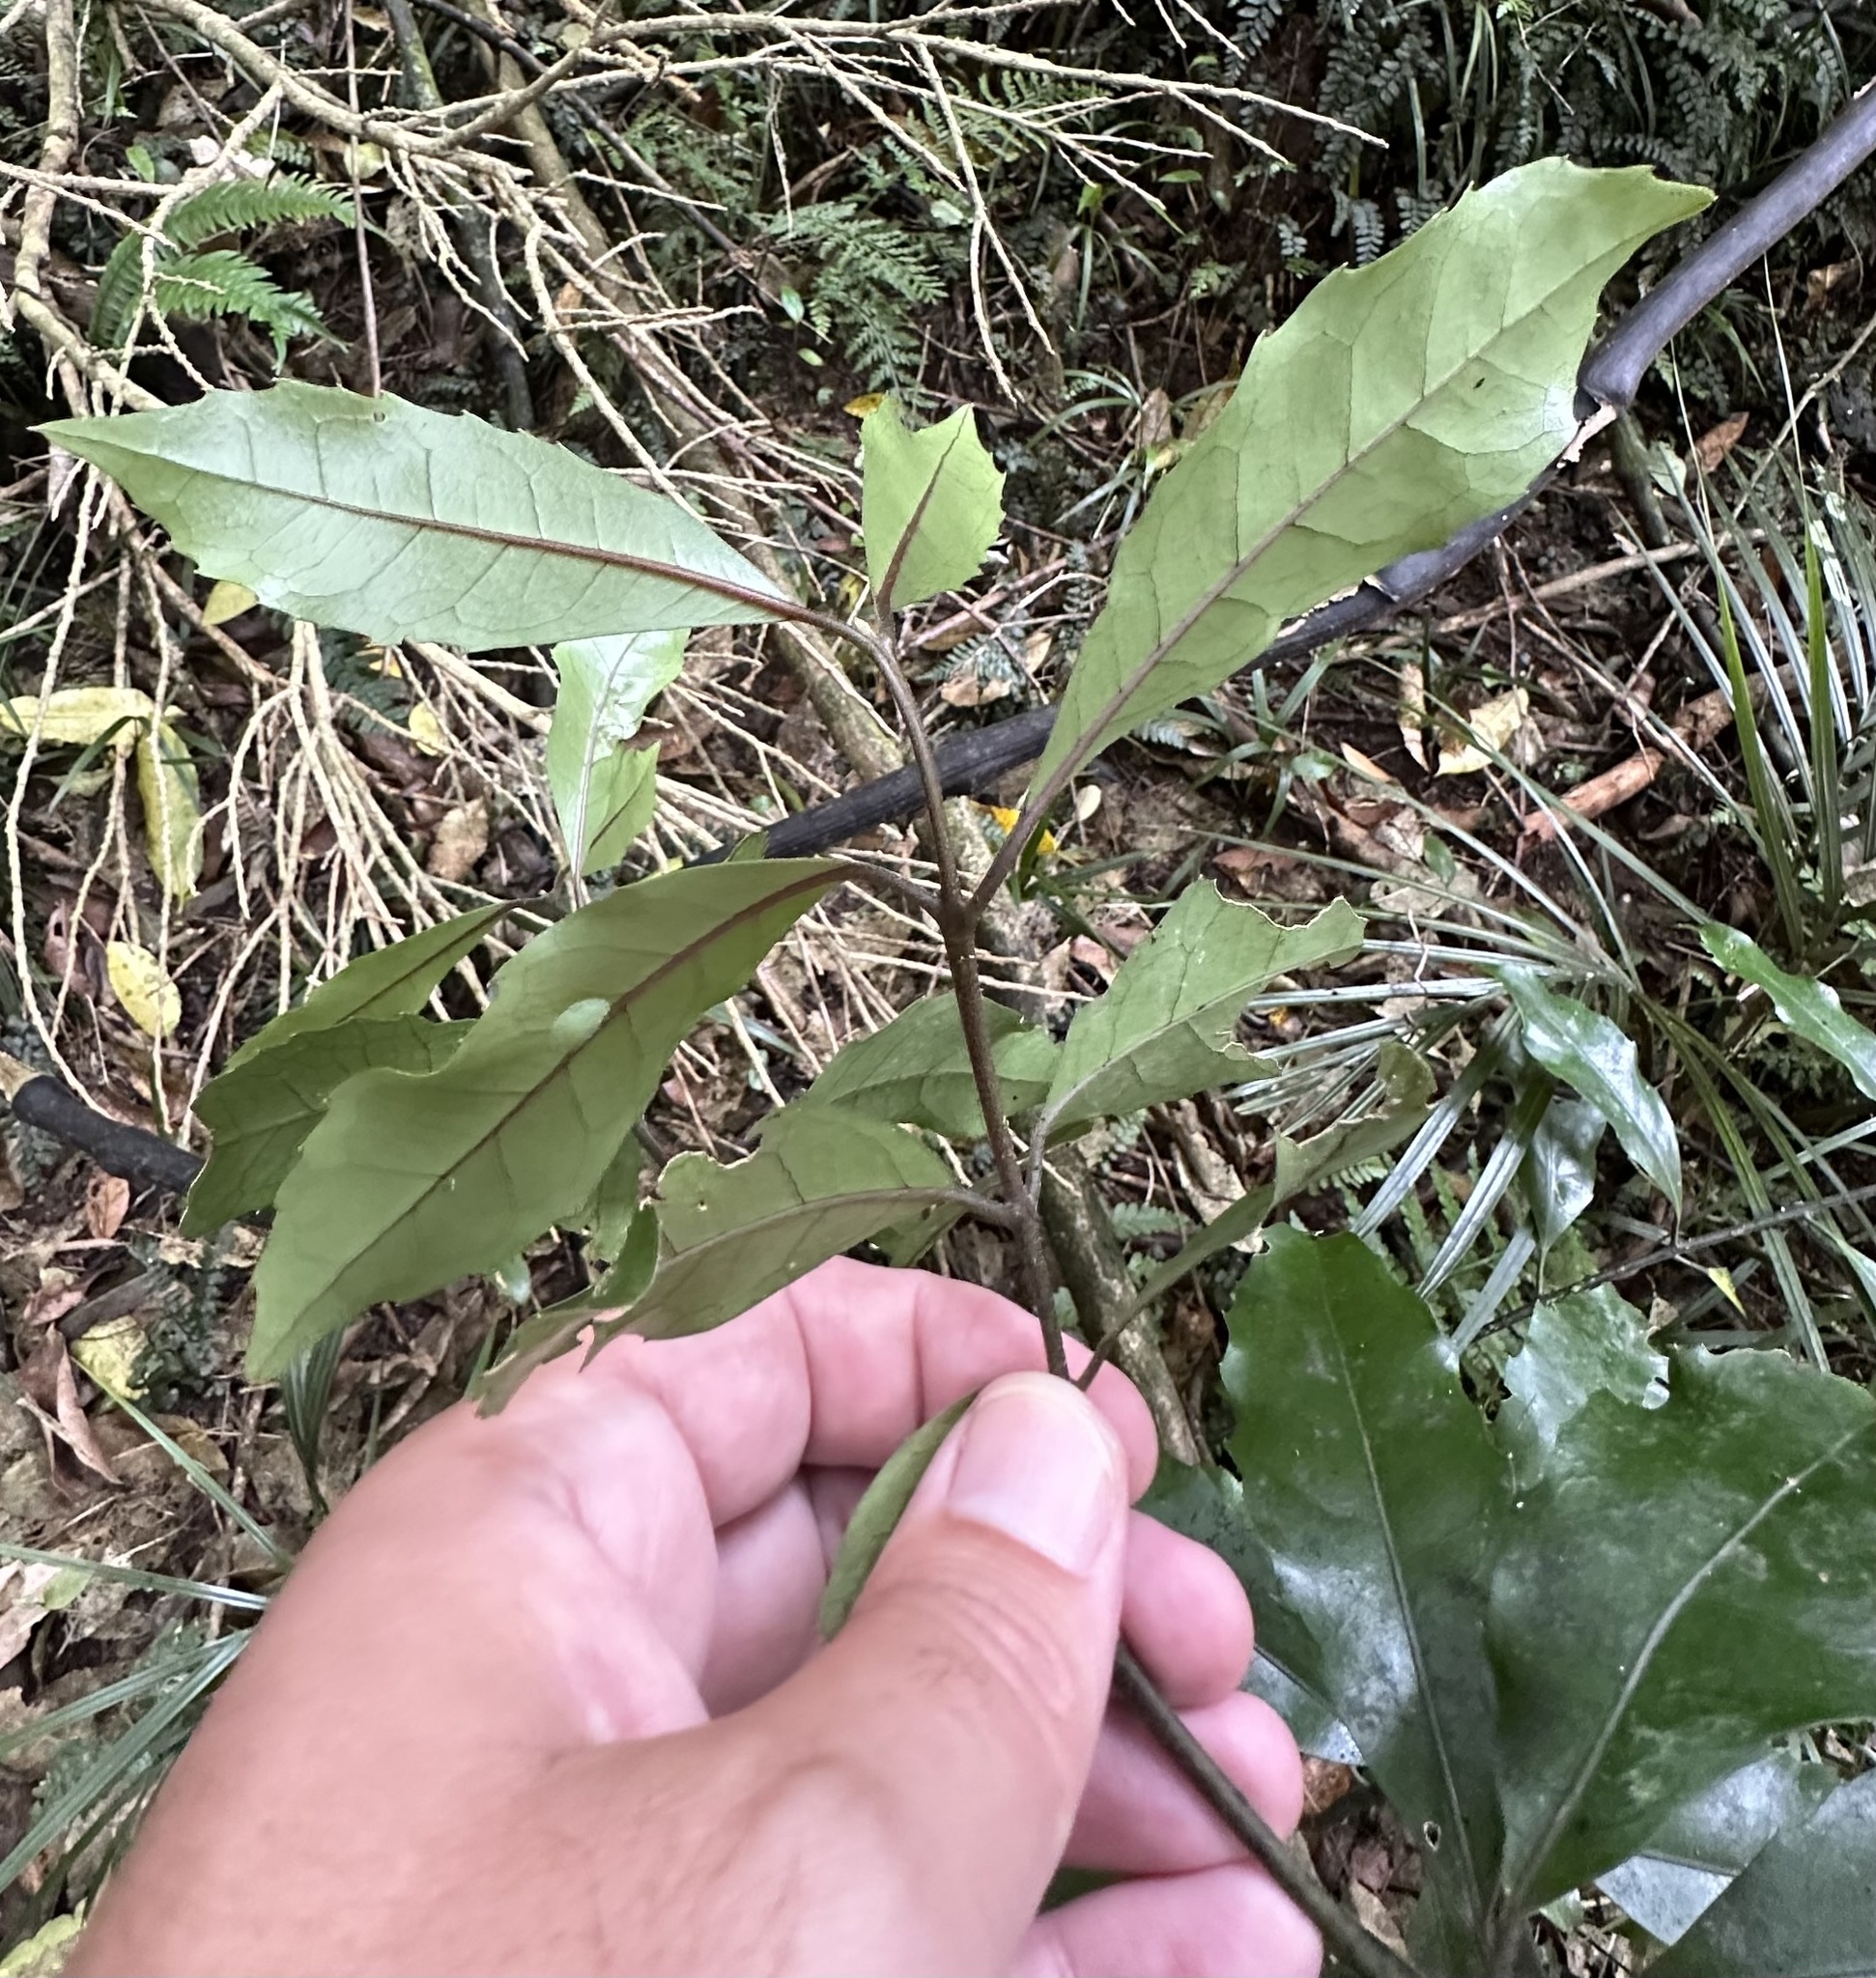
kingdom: Plantae
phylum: Tracheophyta
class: Magnoliopsida
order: Laurales
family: Monimiaceae
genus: Hedycarya
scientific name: Hedycarya arborea
